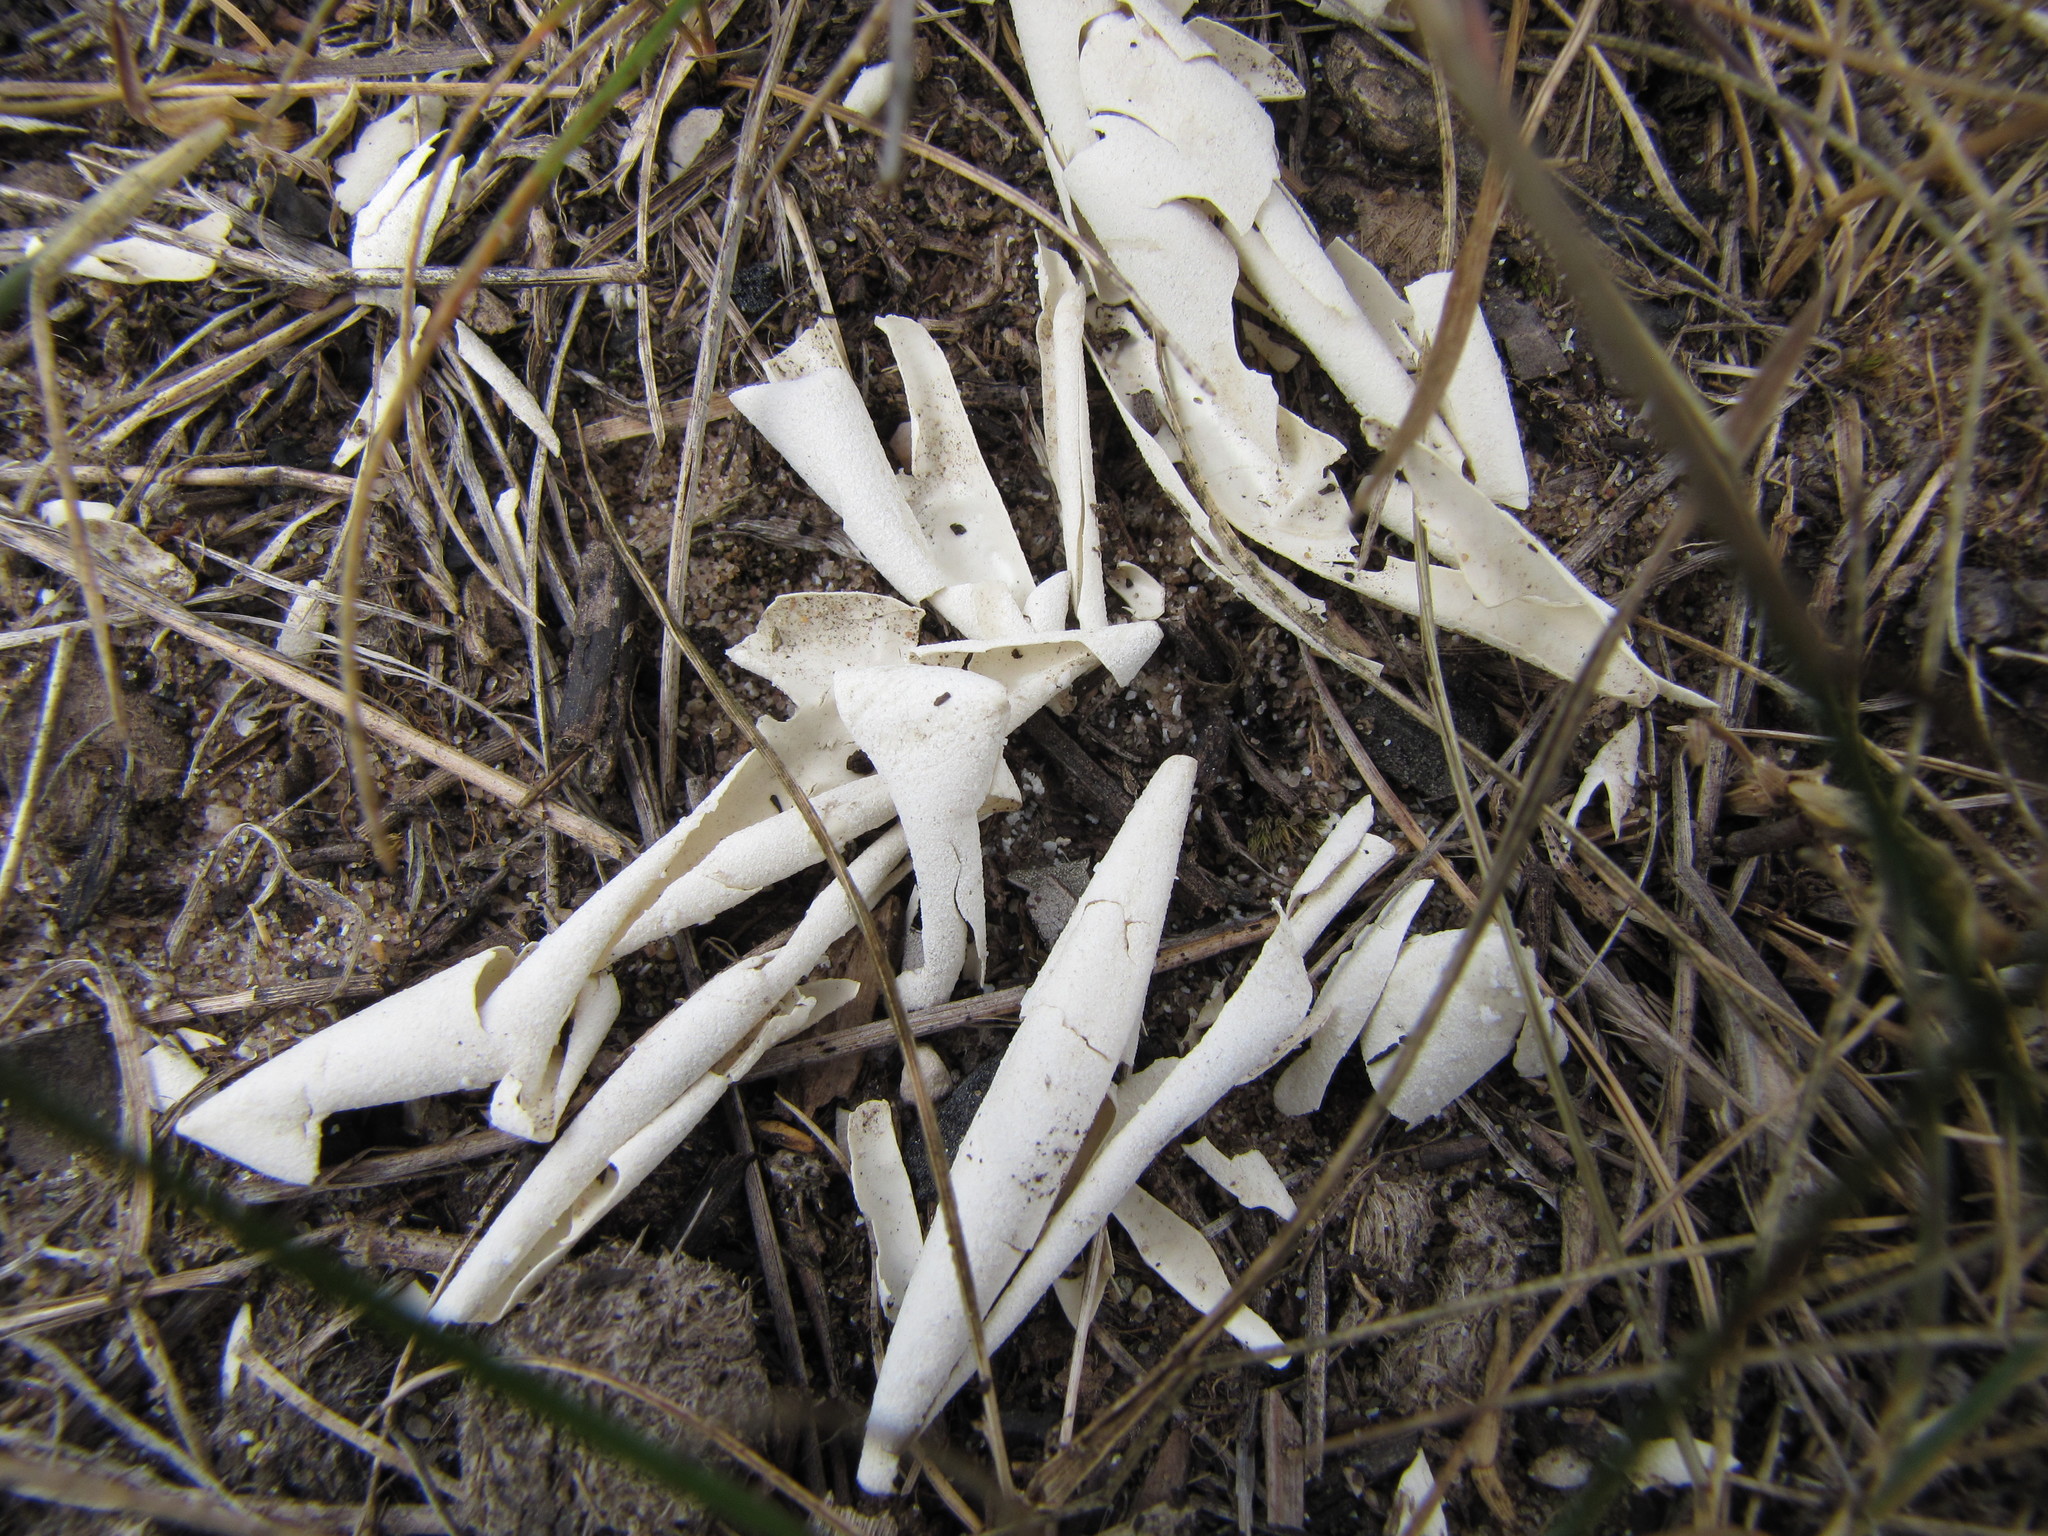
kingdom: Animalia
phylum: Chordata
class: Testudines
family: Chelydridae
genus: Chelydra
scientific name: Chelydra serpentina
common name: Common snapping turtle
